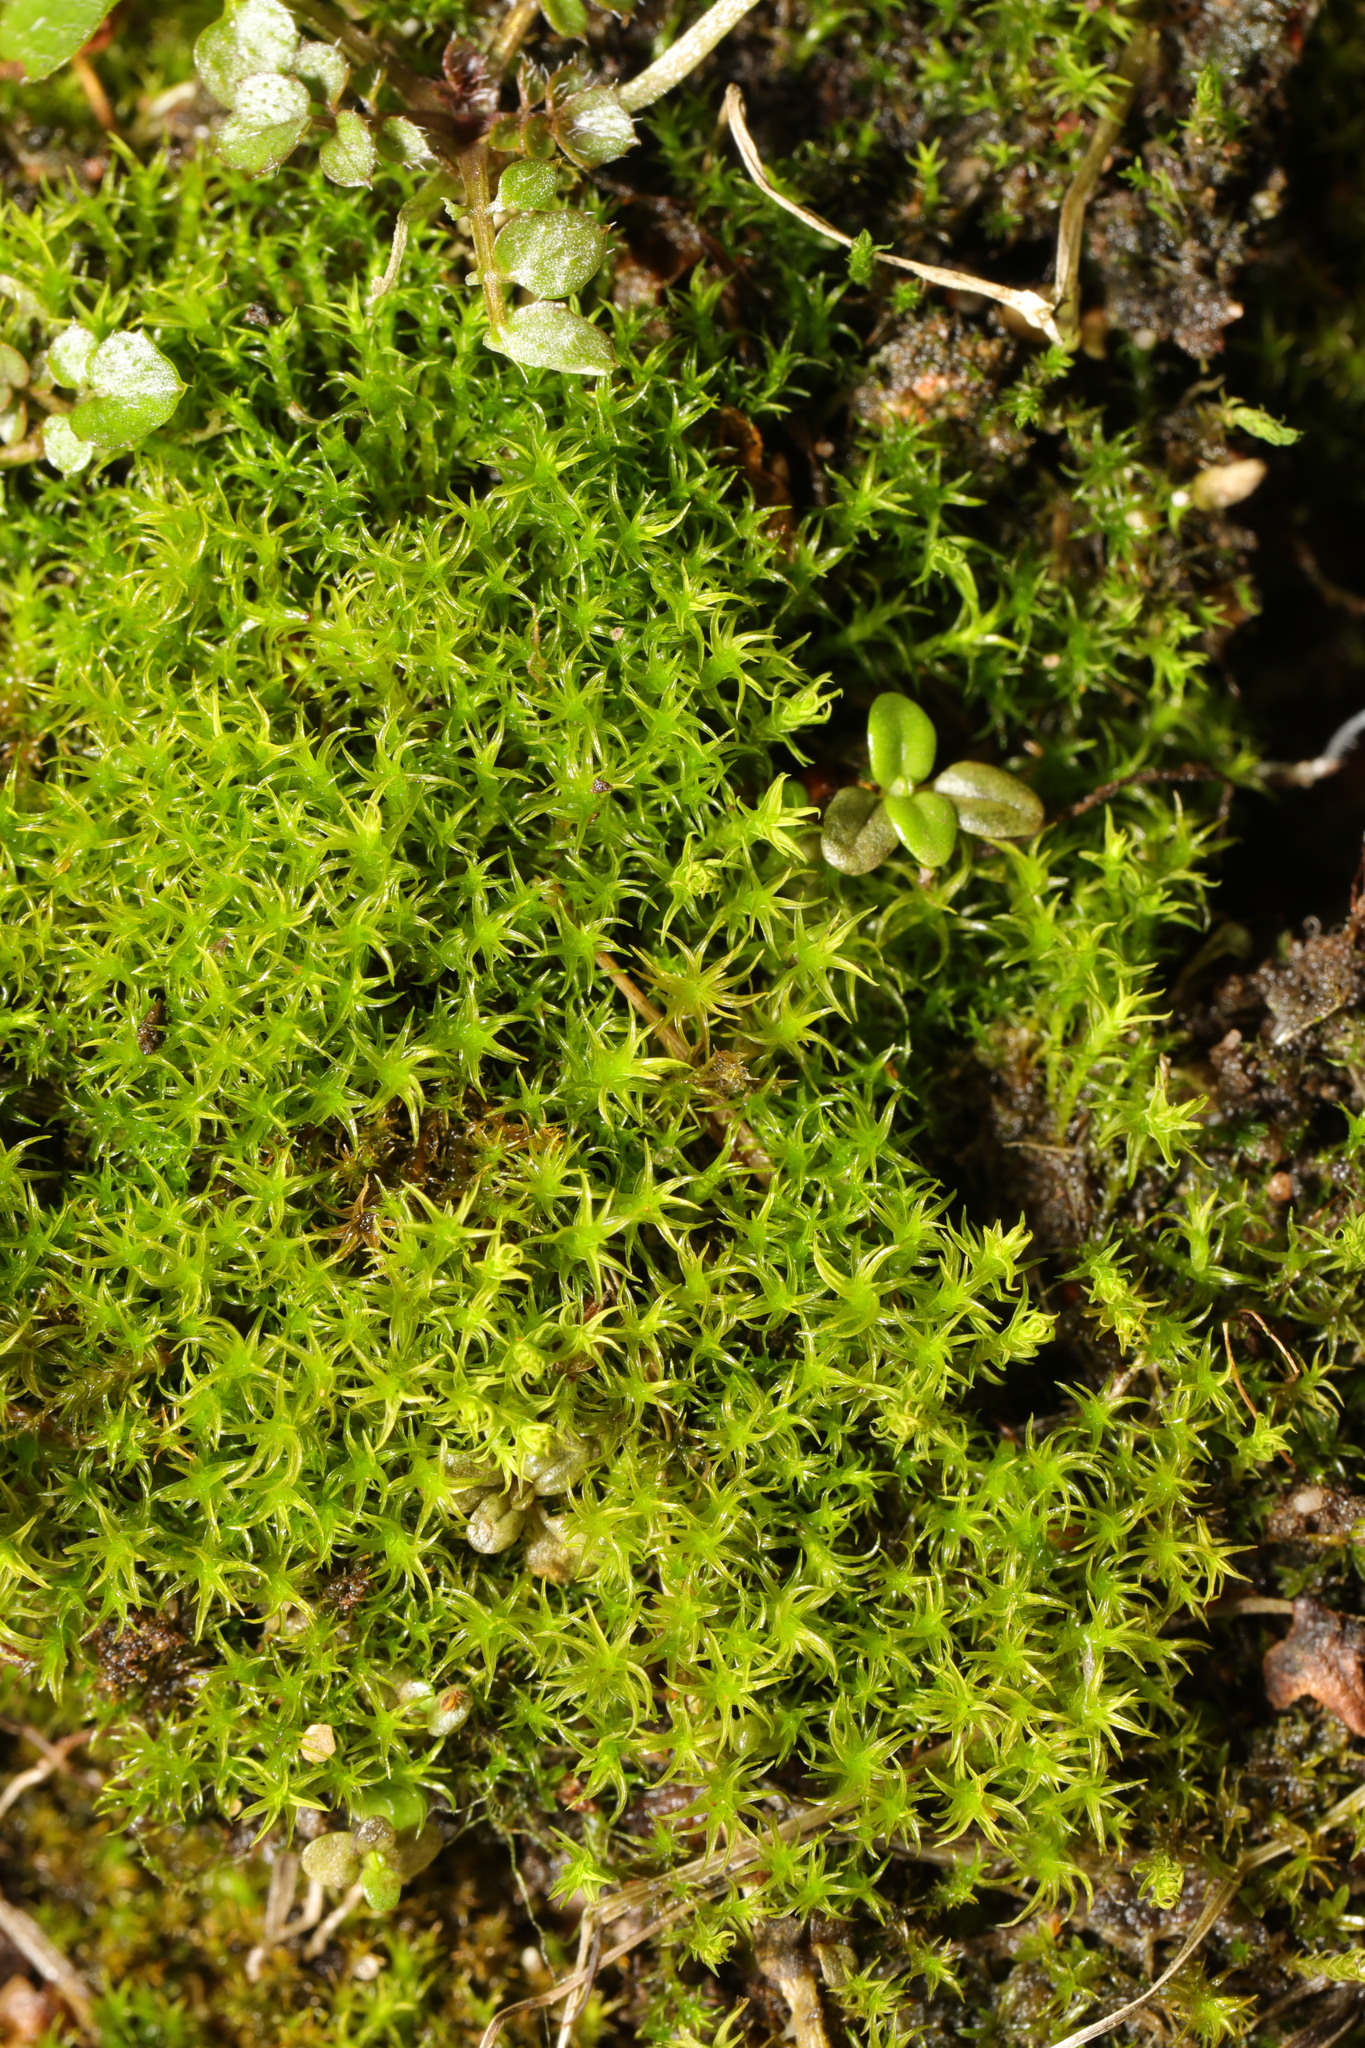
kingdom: Plantae
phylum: Bryophyta
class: Bryopsida
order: Dicranales
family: Ditrichaceae
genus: Ceratodon
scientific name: Ceratodon purpureus
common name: Redshank
